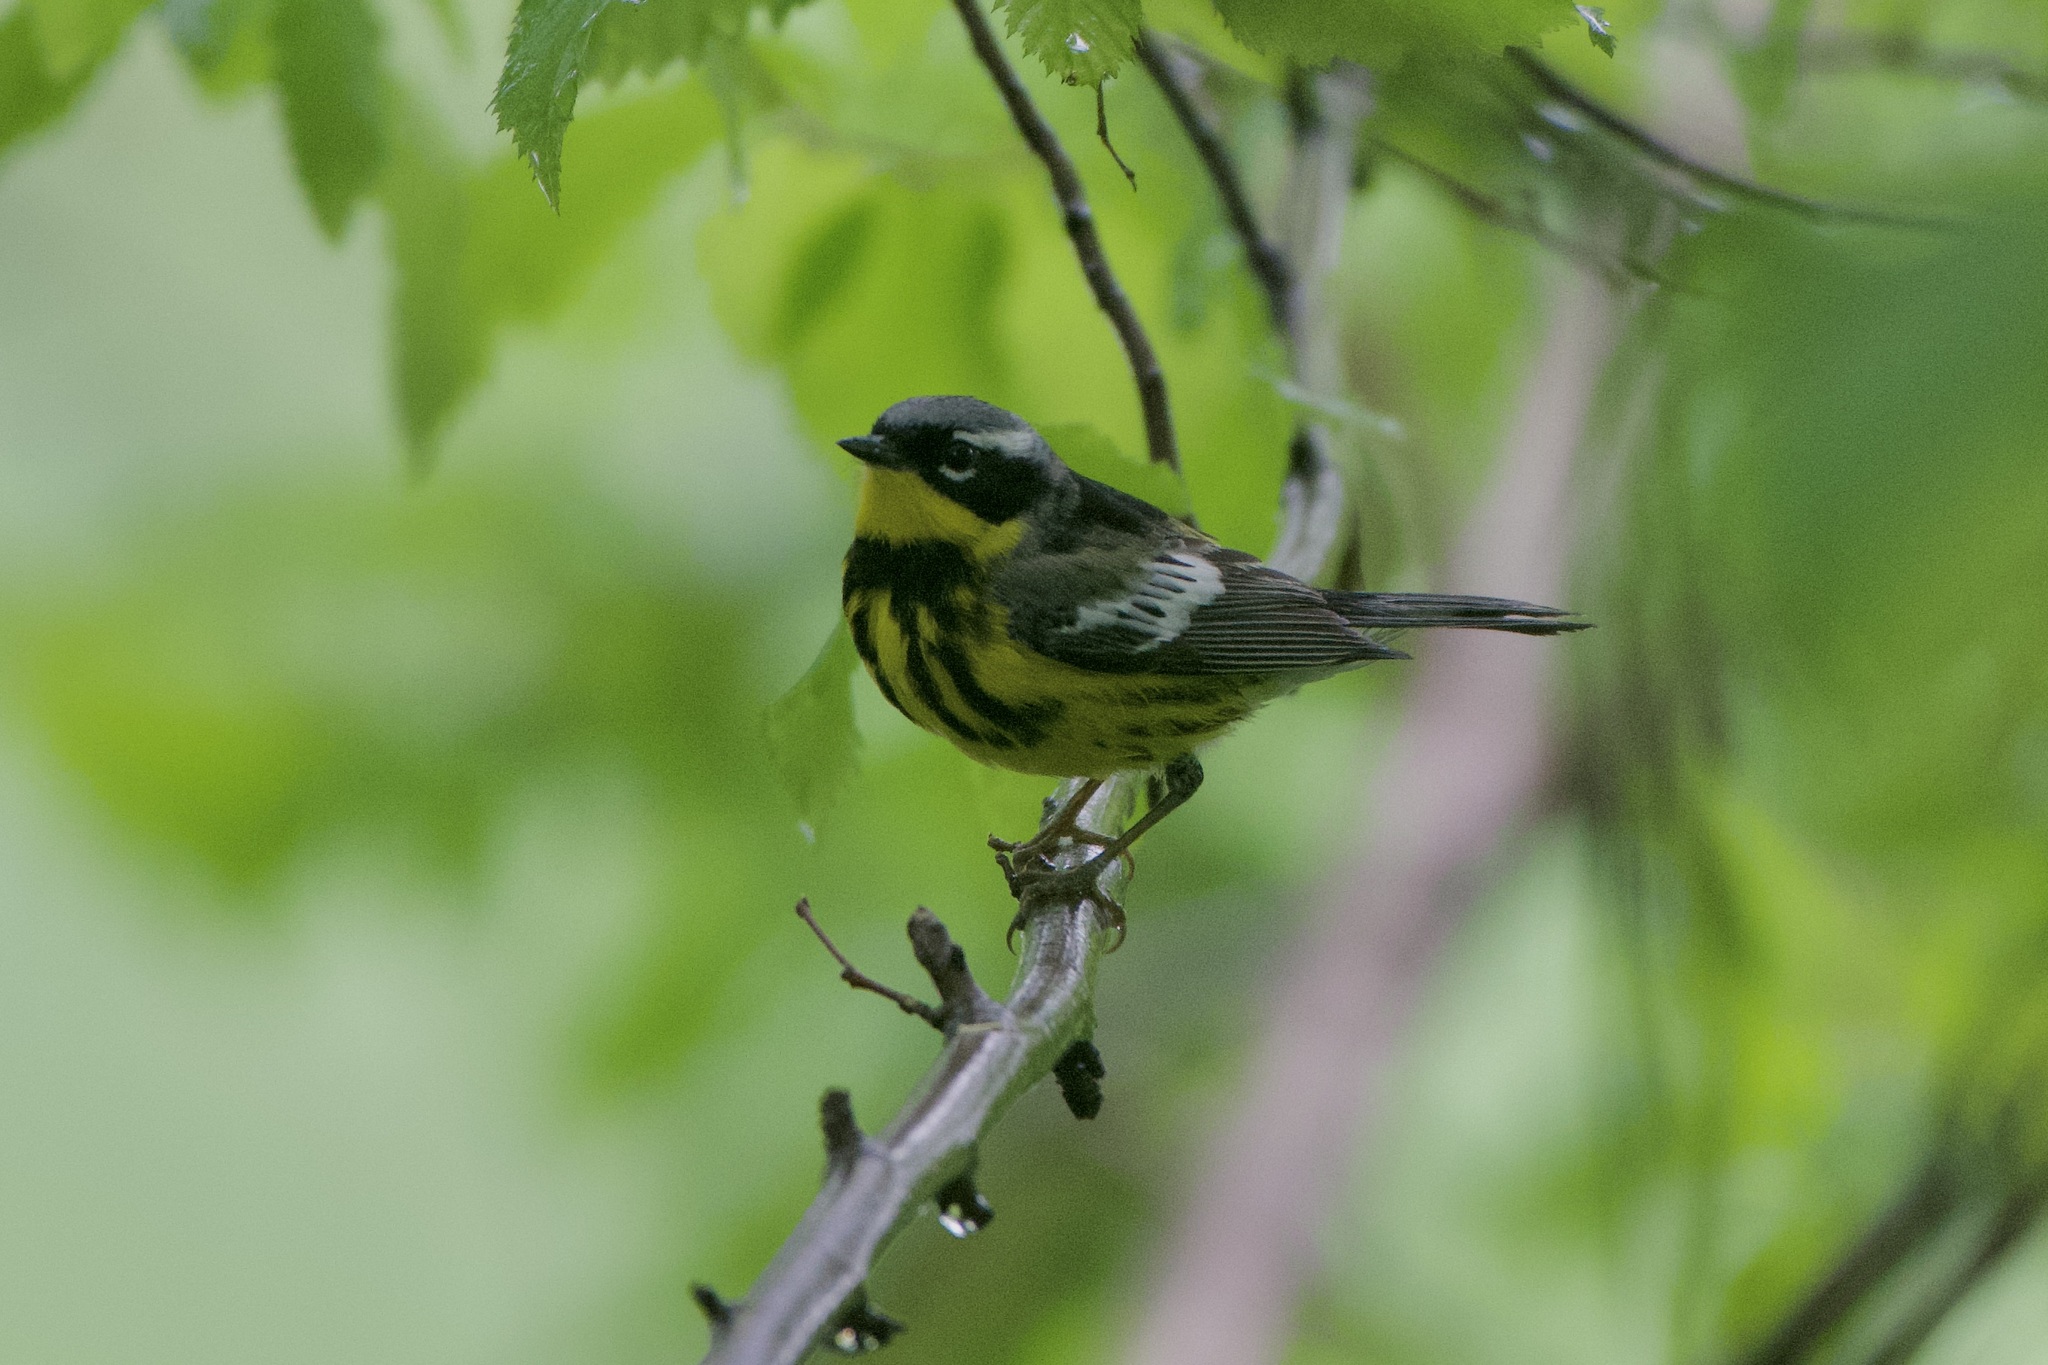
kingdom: Animalia
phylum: Chordata
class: Aves
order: Passeriformes
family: Parulidae
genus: Setophaga
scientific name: Setophaga magnolia
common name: Magnolia warbler
